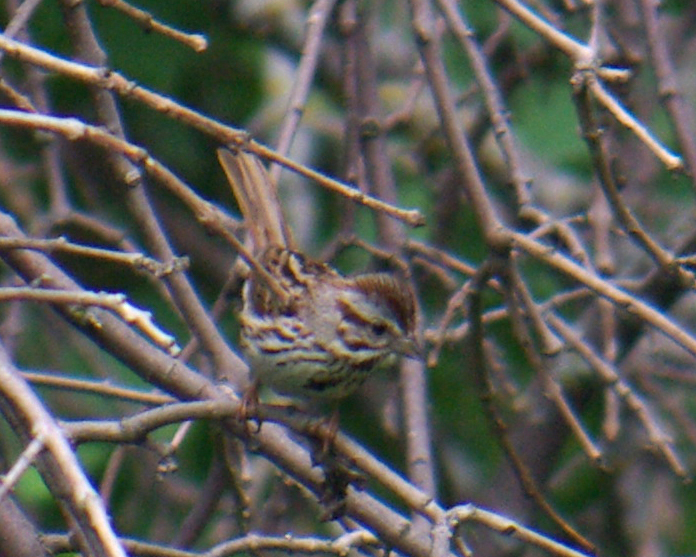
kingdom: Animalia
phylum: Chordata
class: Aves
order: Passeriformes
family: Passerellidae
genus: Melospiza
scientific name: Melospiza melodia
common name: Song sparrow
